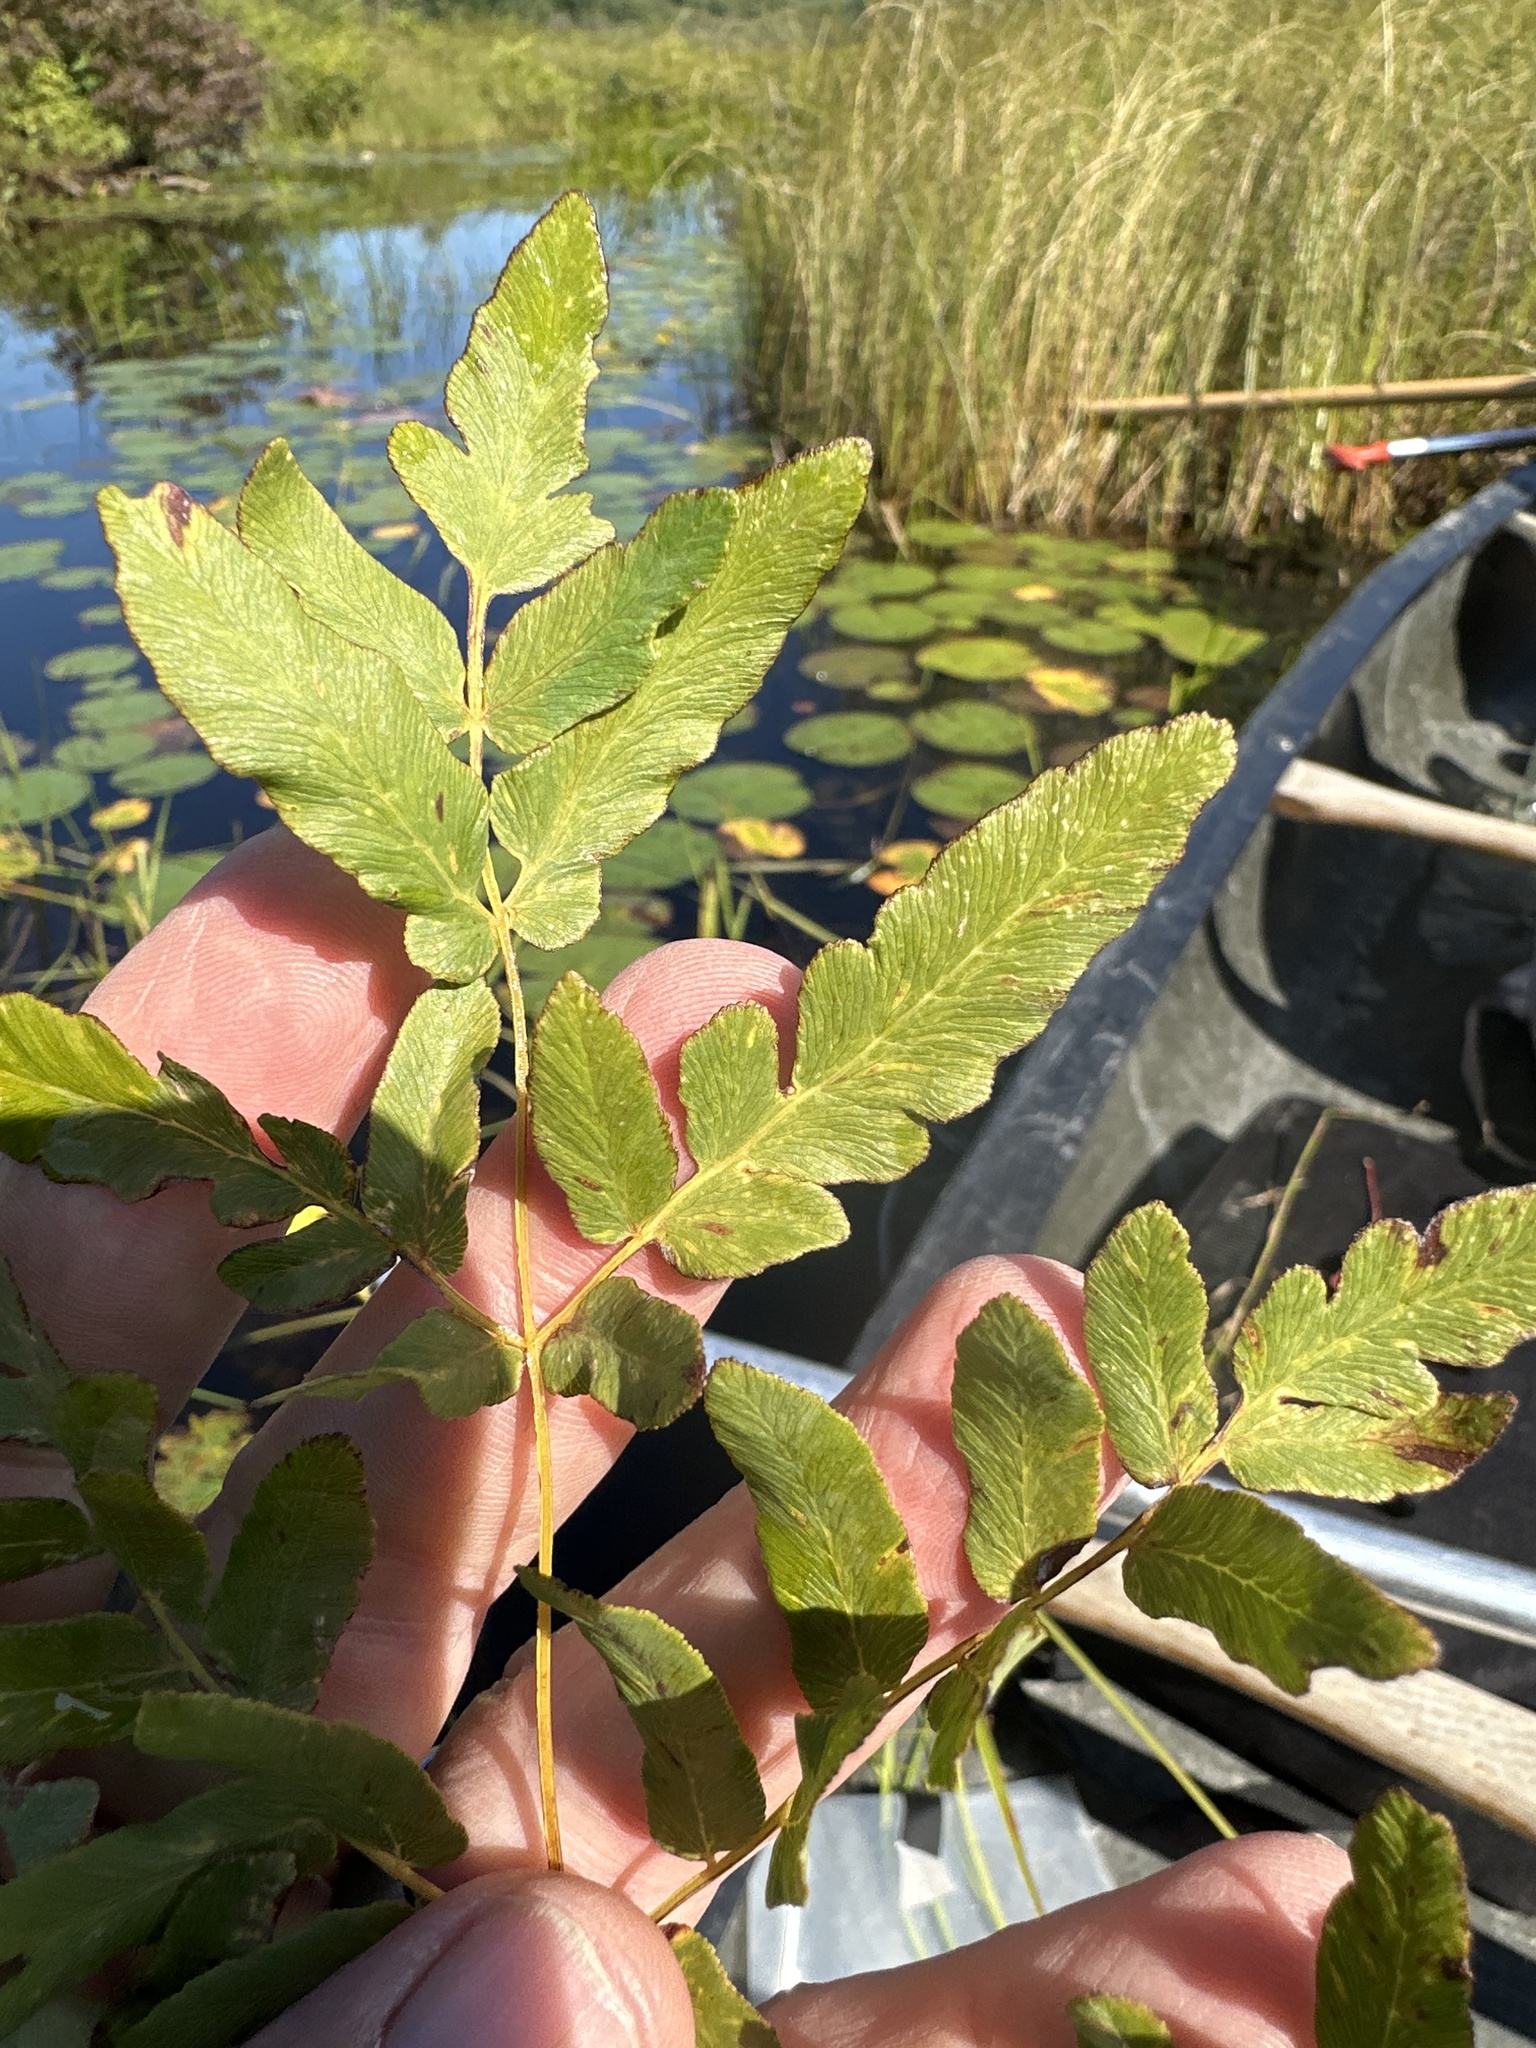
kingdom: Plantae
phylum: Tracheophyta
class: Polypodiopsida
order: Osmundales
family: Osmundaceae
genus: Osmunda
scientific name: Osmunda spectabilis
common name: American royal fern
